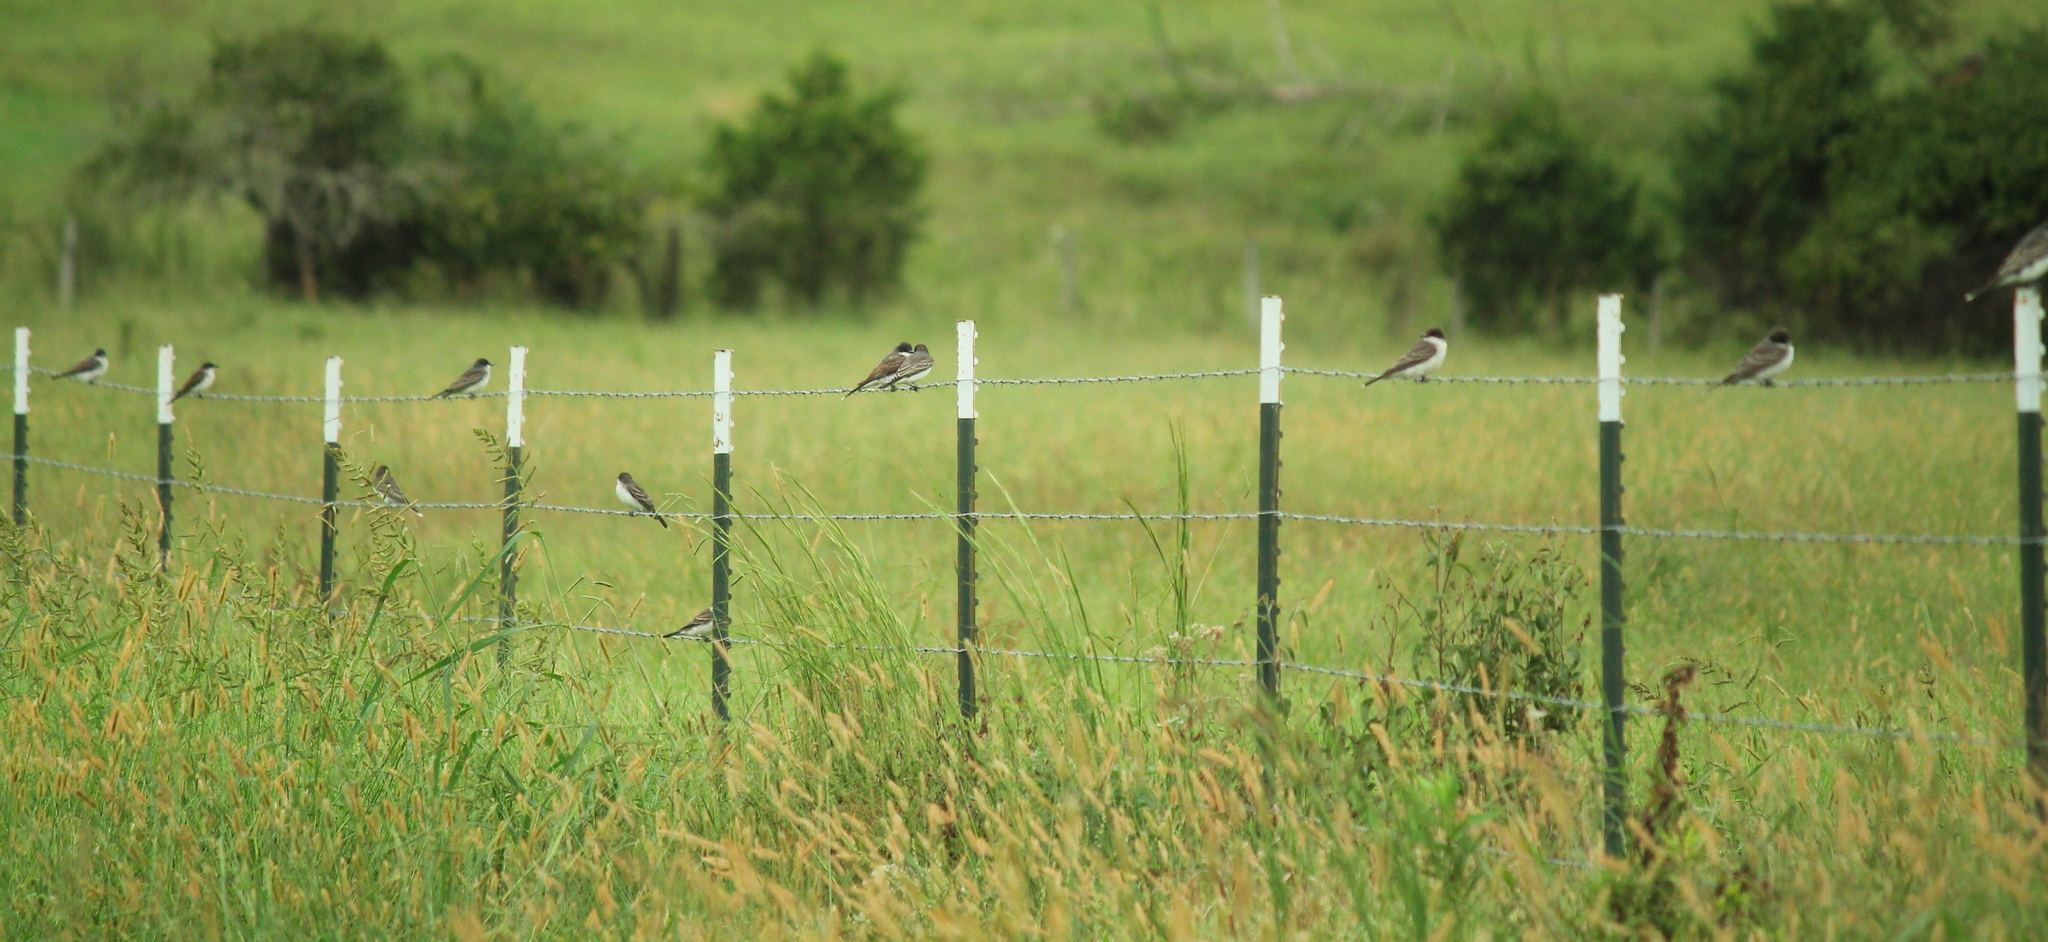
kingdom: Animalia
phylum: Chordata
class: Aves
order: Passeriformes
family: Tyrannidae
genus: Tyrannus
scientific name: Tyrannus tyrannus
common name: Eastern kingbird
